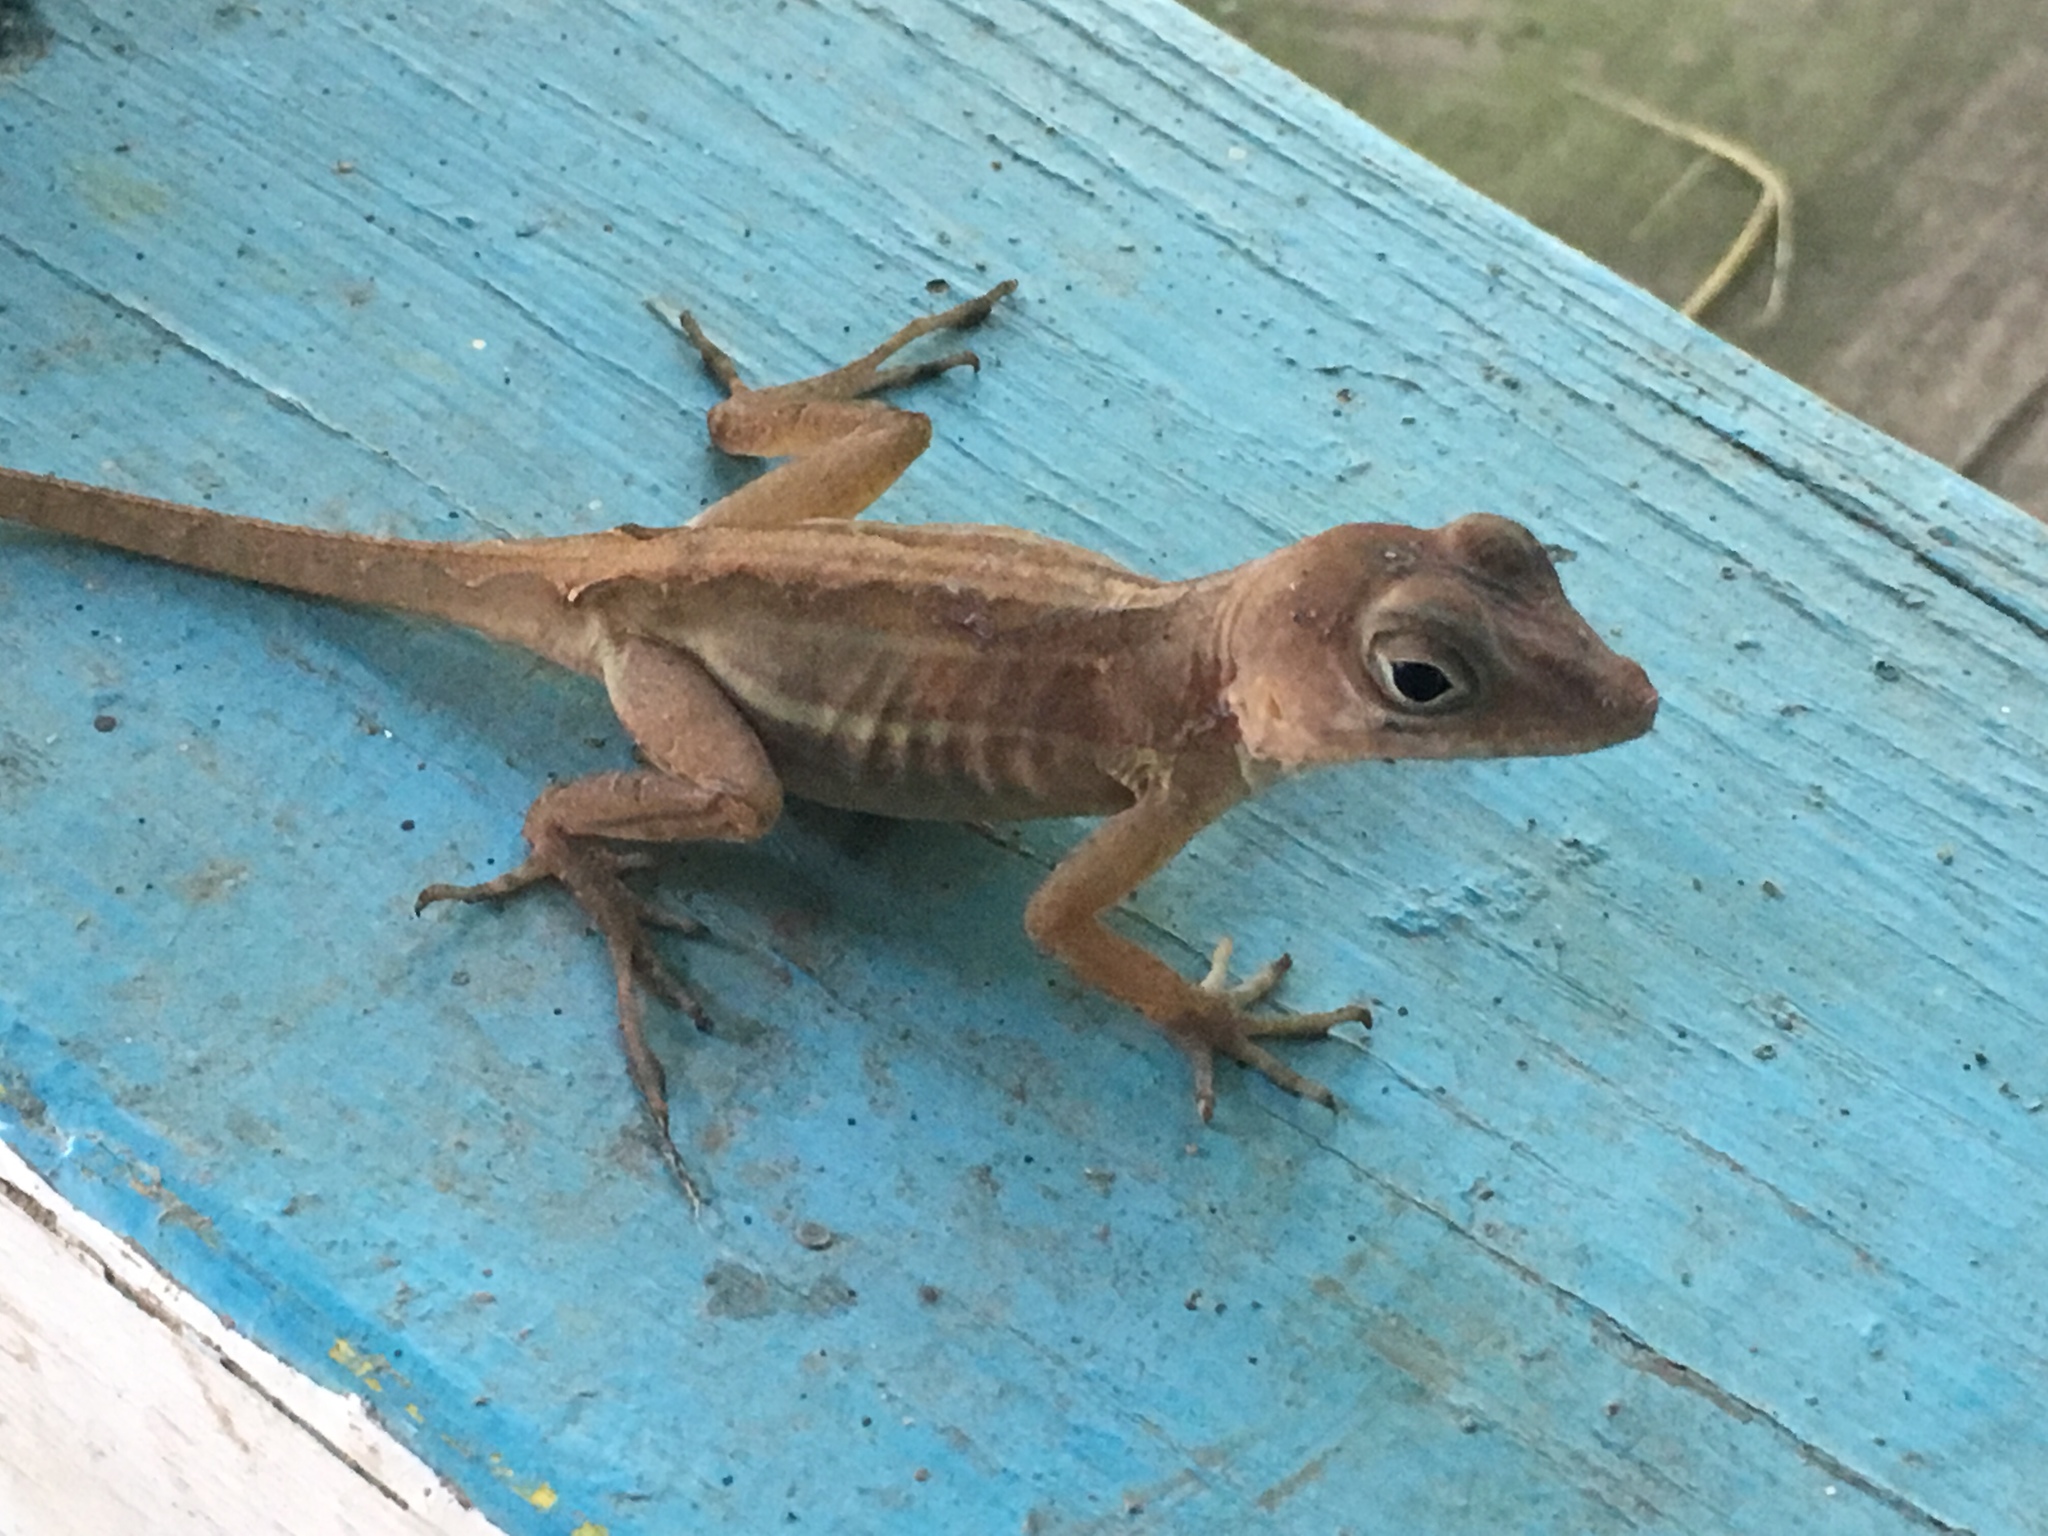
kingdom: Animalia
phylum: Chordata
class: Squamata
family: Dactyloidae
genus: Anolis
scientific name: Anolis cybotes
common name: Large-headed anole
